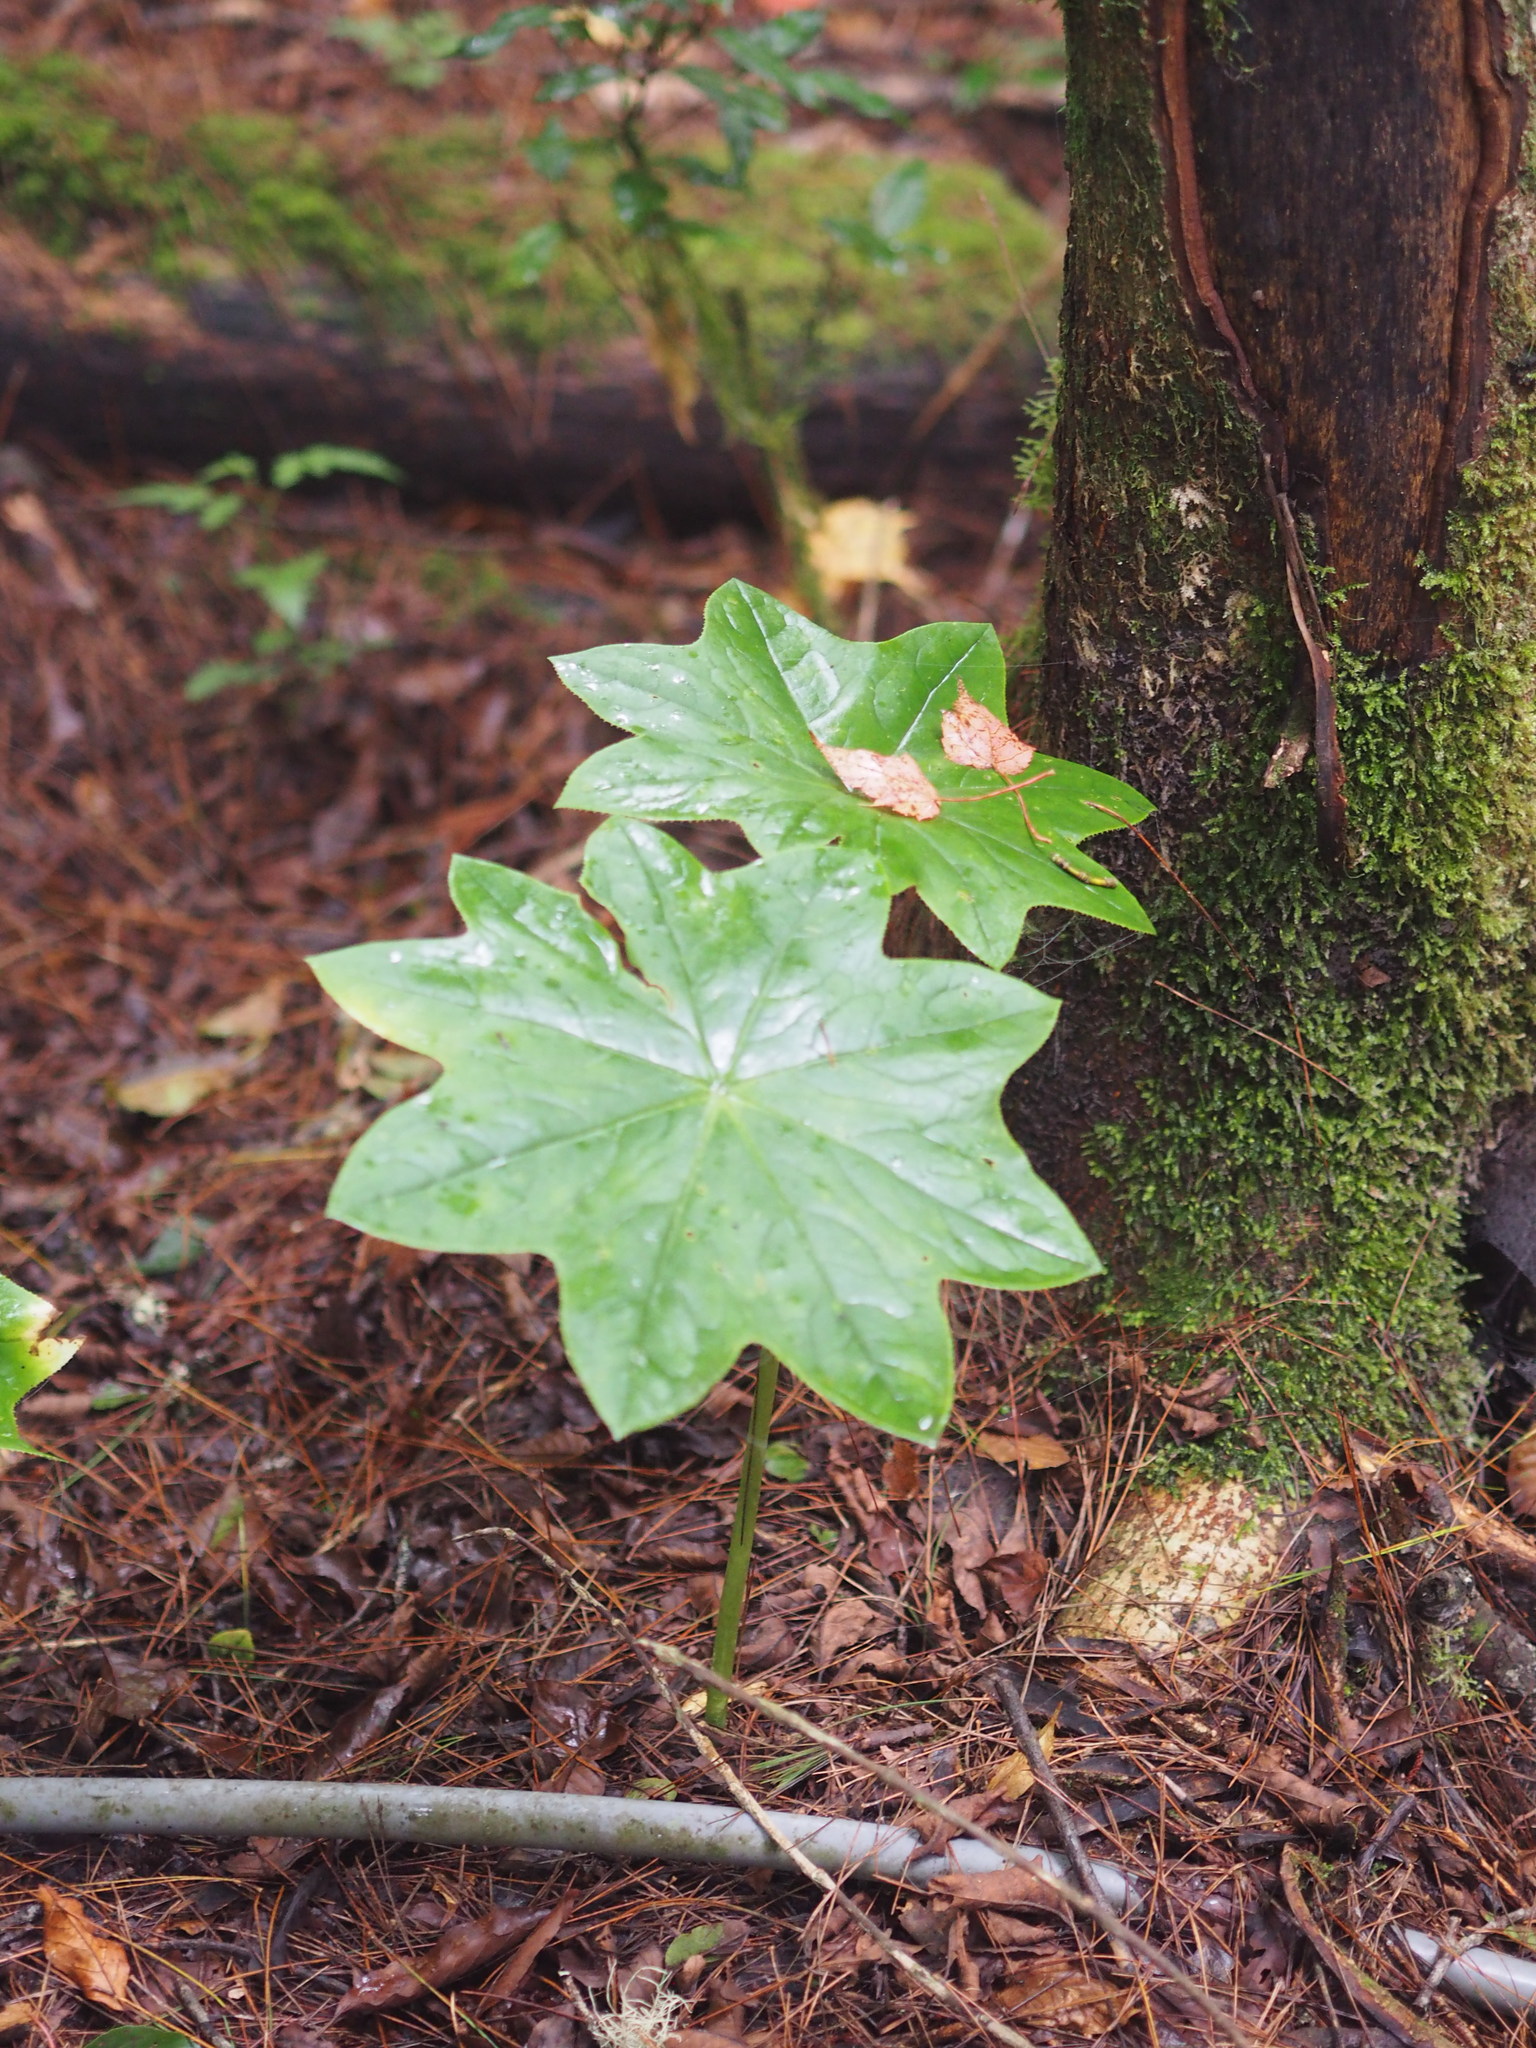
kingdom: Plantae
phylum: Tracheophyta
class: Magnoliopsida
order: Ranunculales
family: Berberidaceae
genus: Dysosma
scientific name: Dysosma pleiantha
